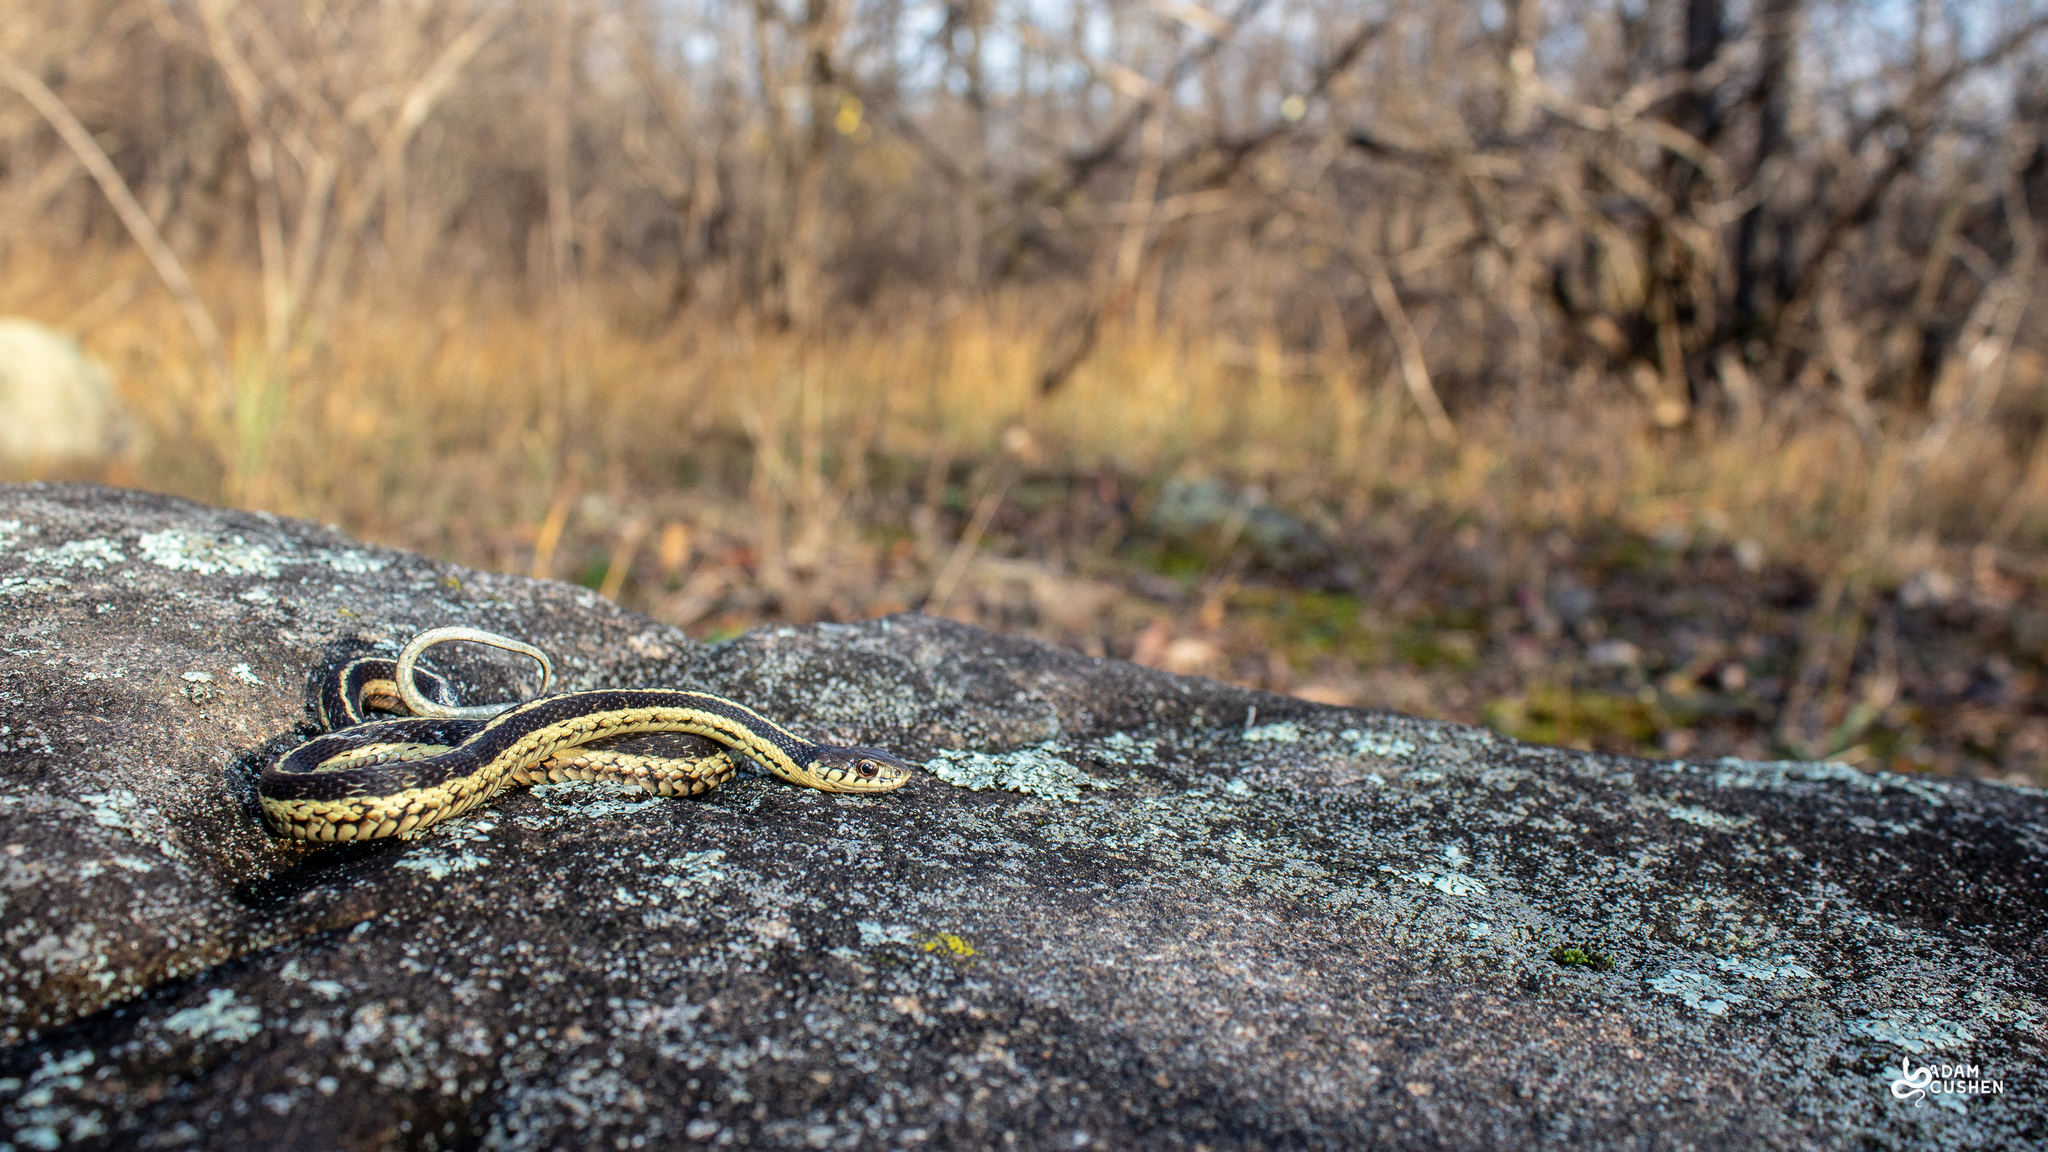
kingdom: Animalia
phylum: Chordata
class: Squamata
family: Colubridae
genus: Thamnophis
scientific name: Thamnophis sirtalis
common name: Common garter snake
